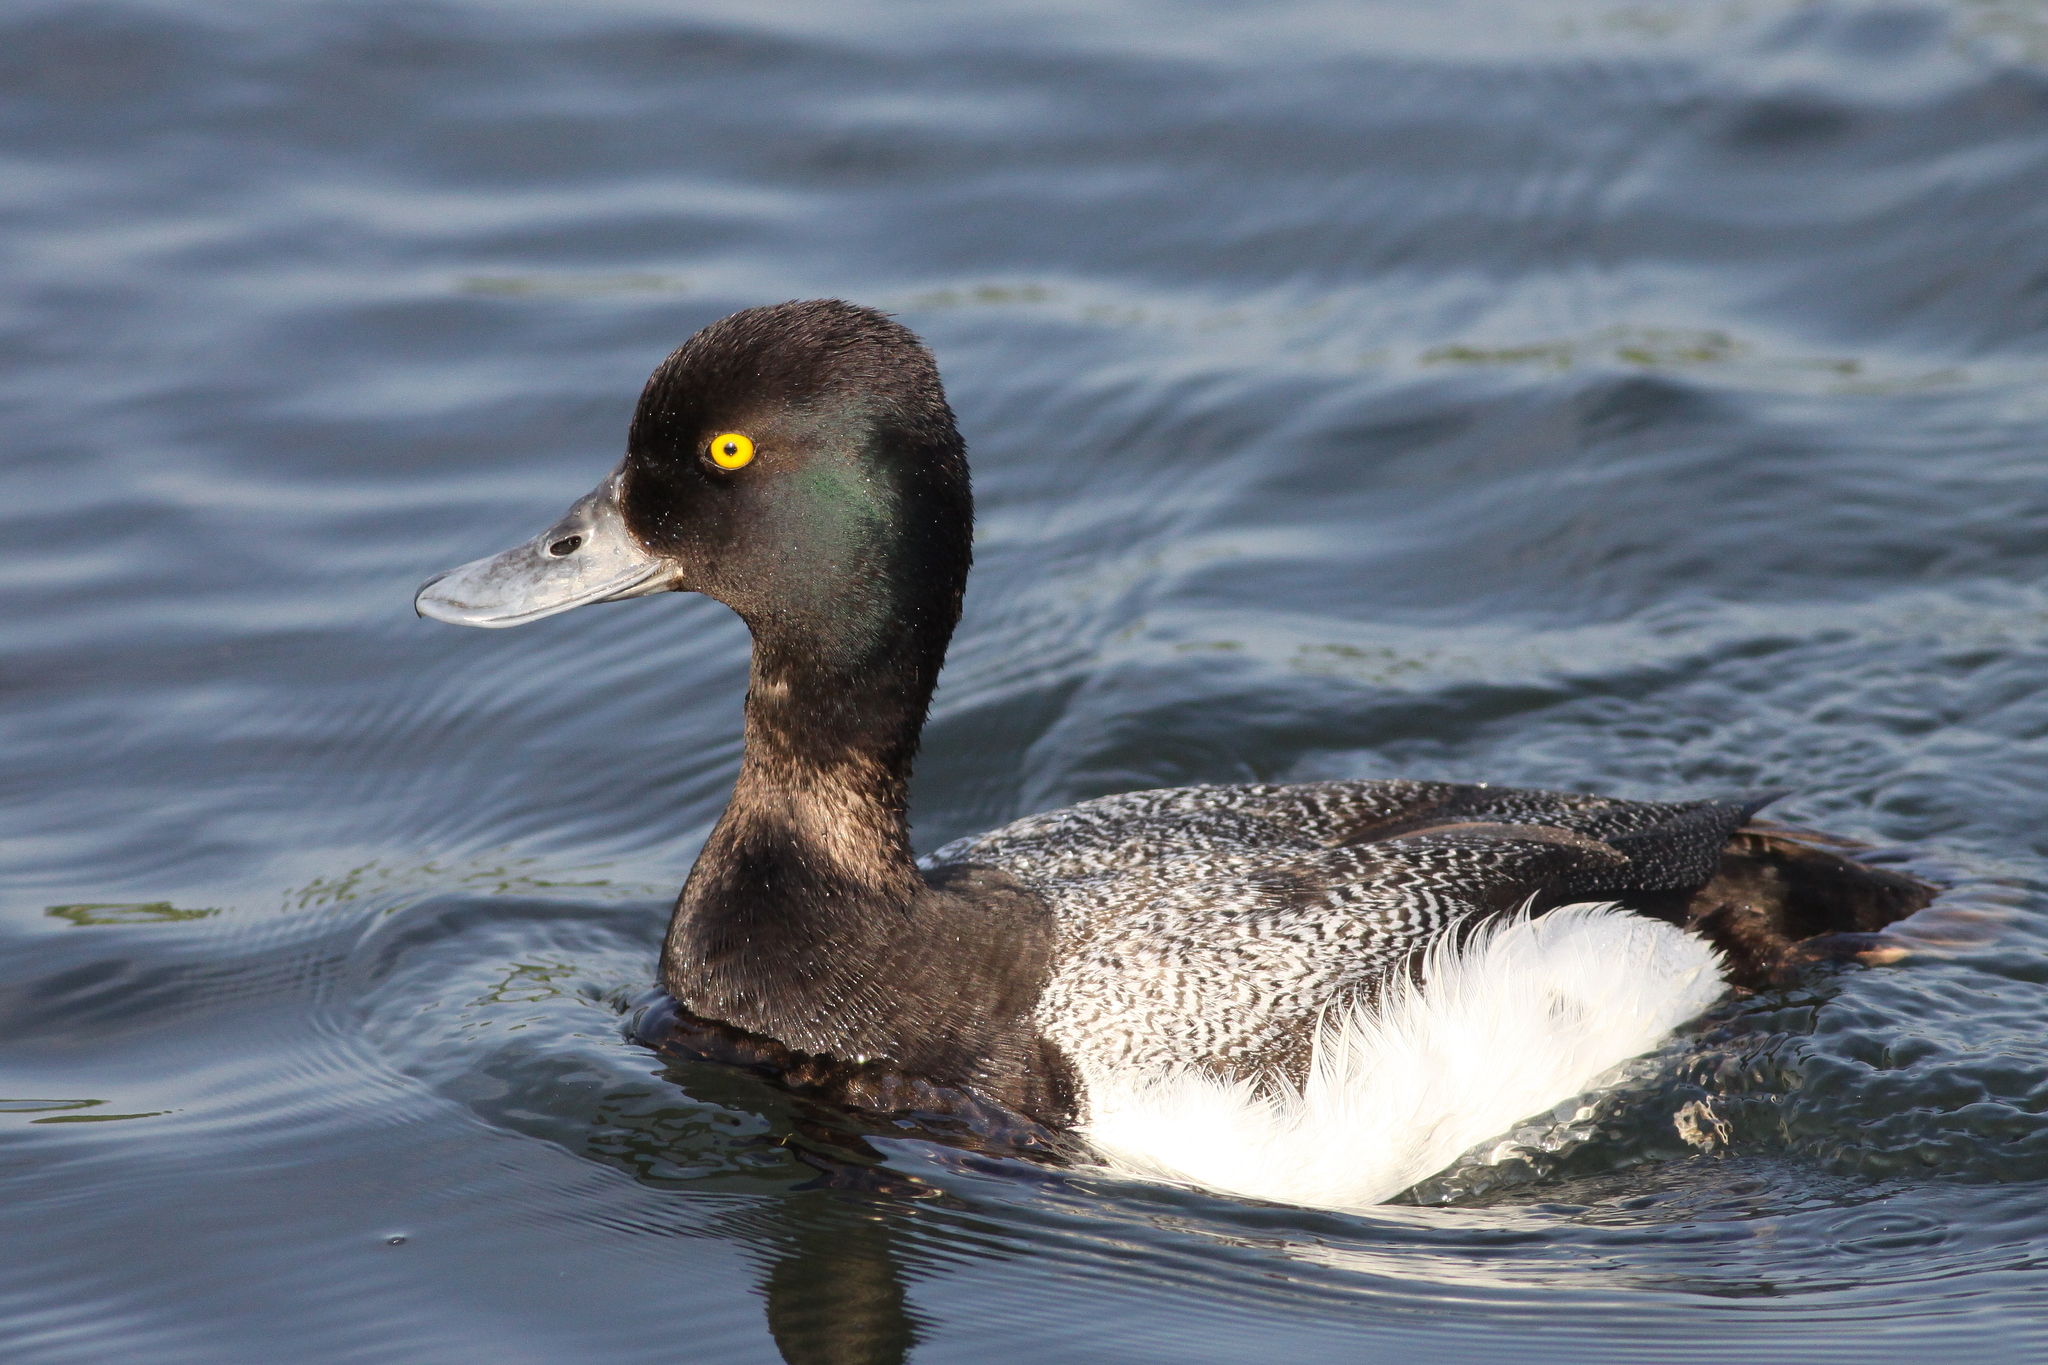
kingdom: Animalia
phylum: Chordata
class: Aves
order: Anseriformes
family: Anatidae
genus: Aythya
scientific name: Aythya affinis
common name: Lesser scaup
